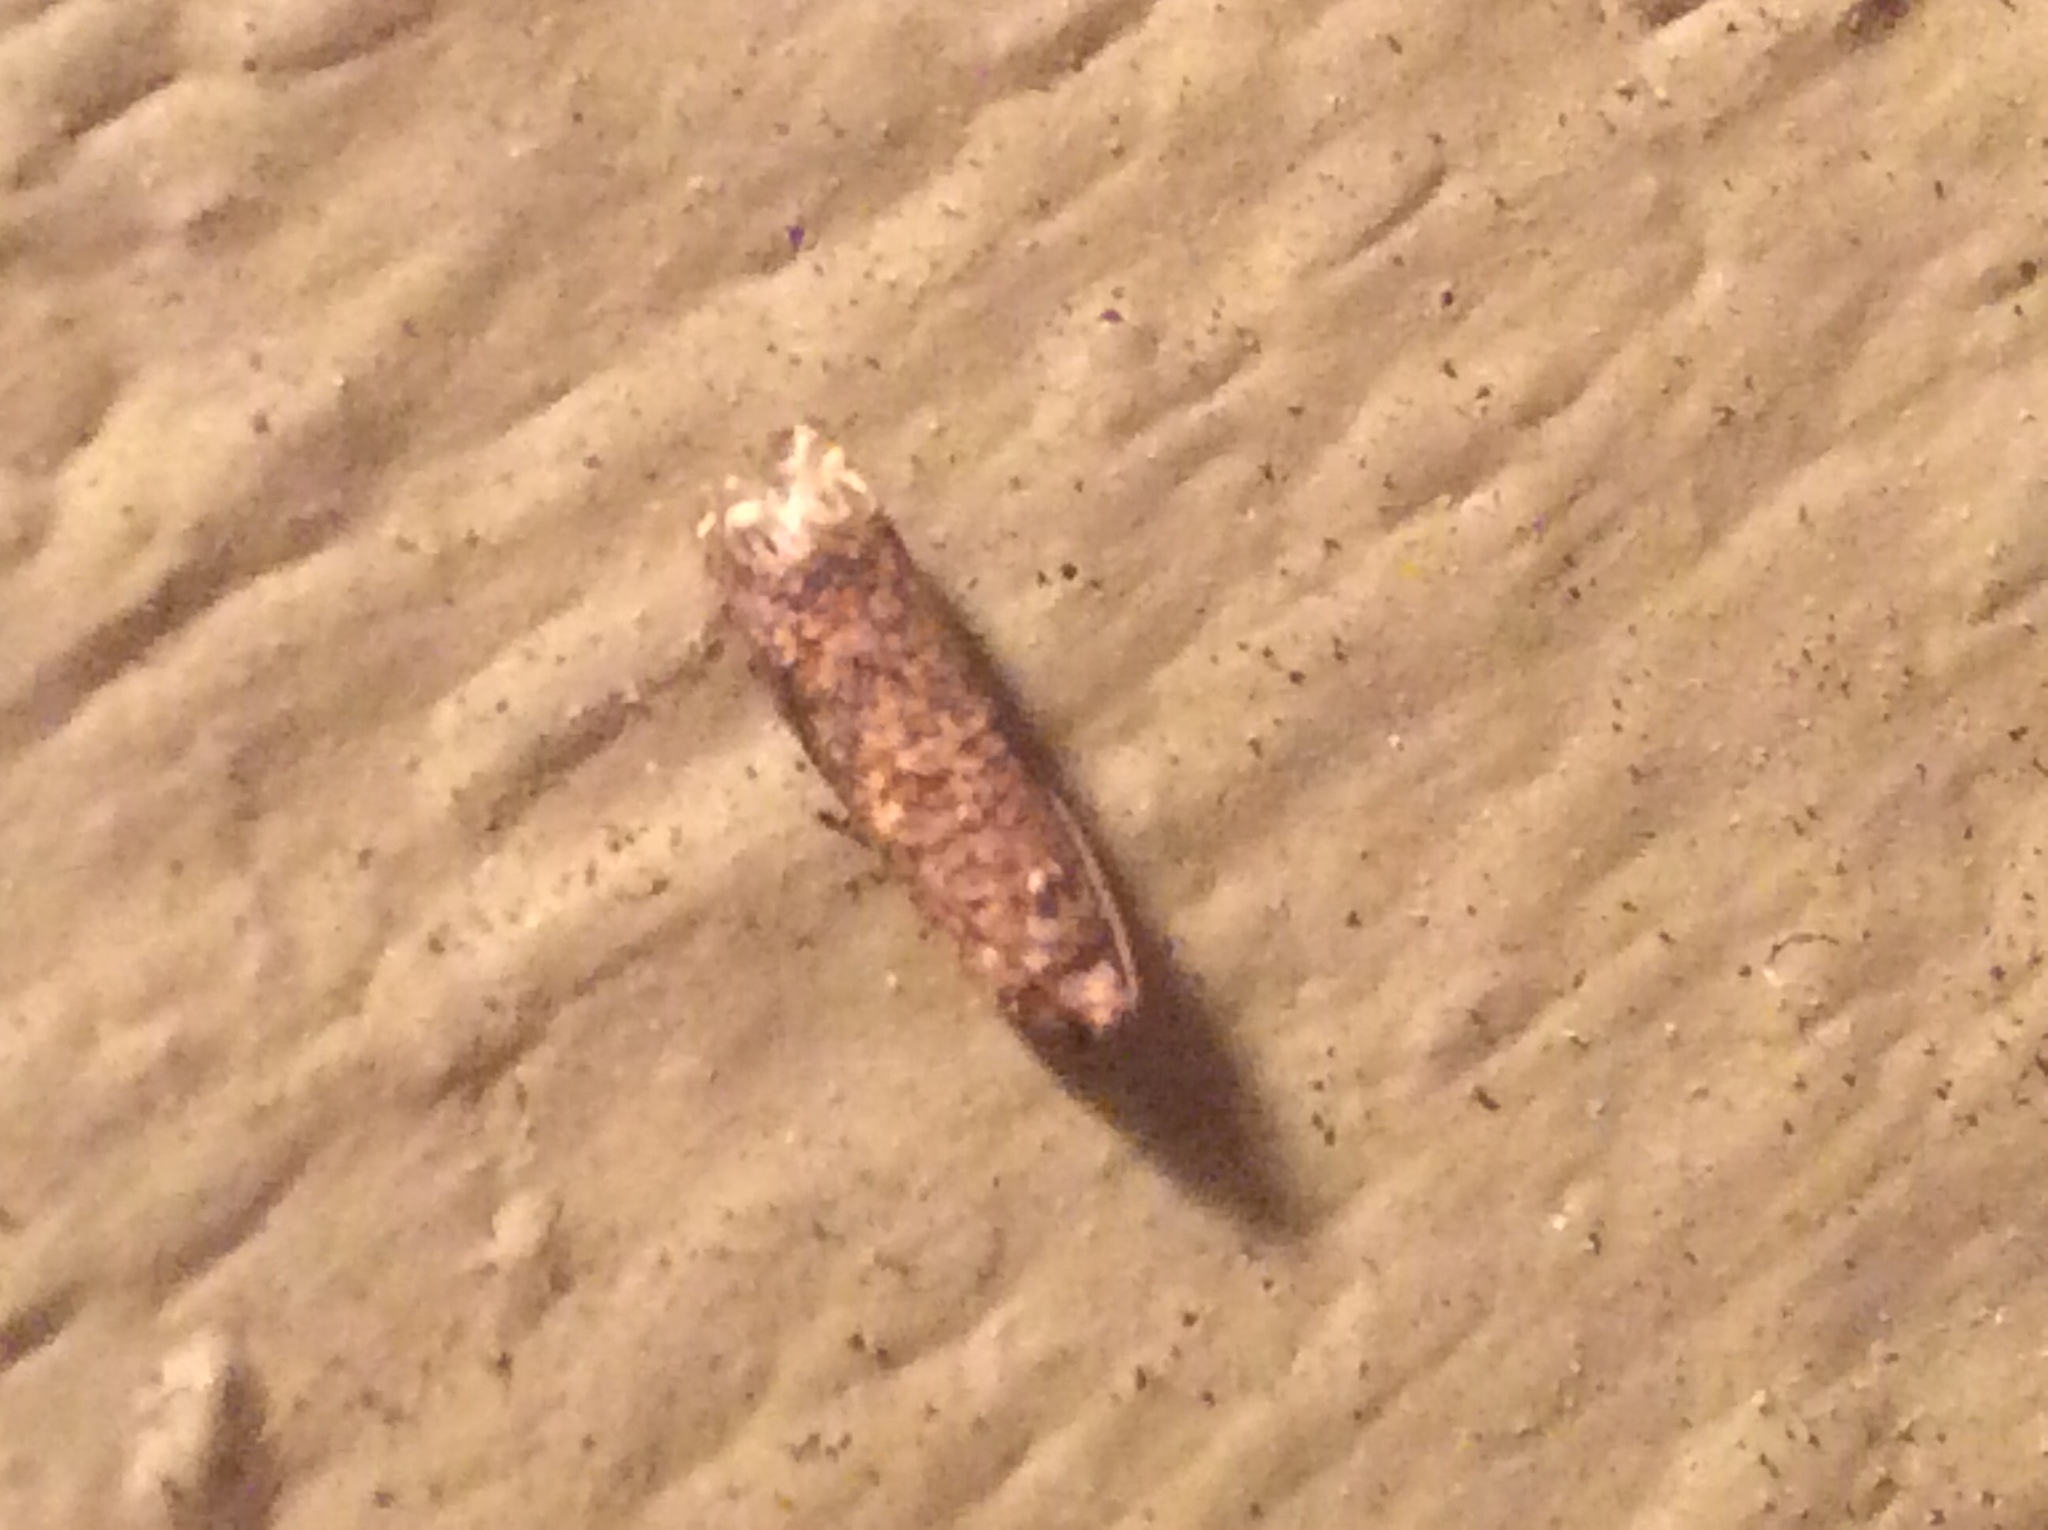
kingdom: Animalia
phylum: Arthropoda
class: Insecta
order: Lepidoptera
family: Tortricidae
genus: Episimus
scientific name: Episimus argutana
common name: Sumac leaftier moth
